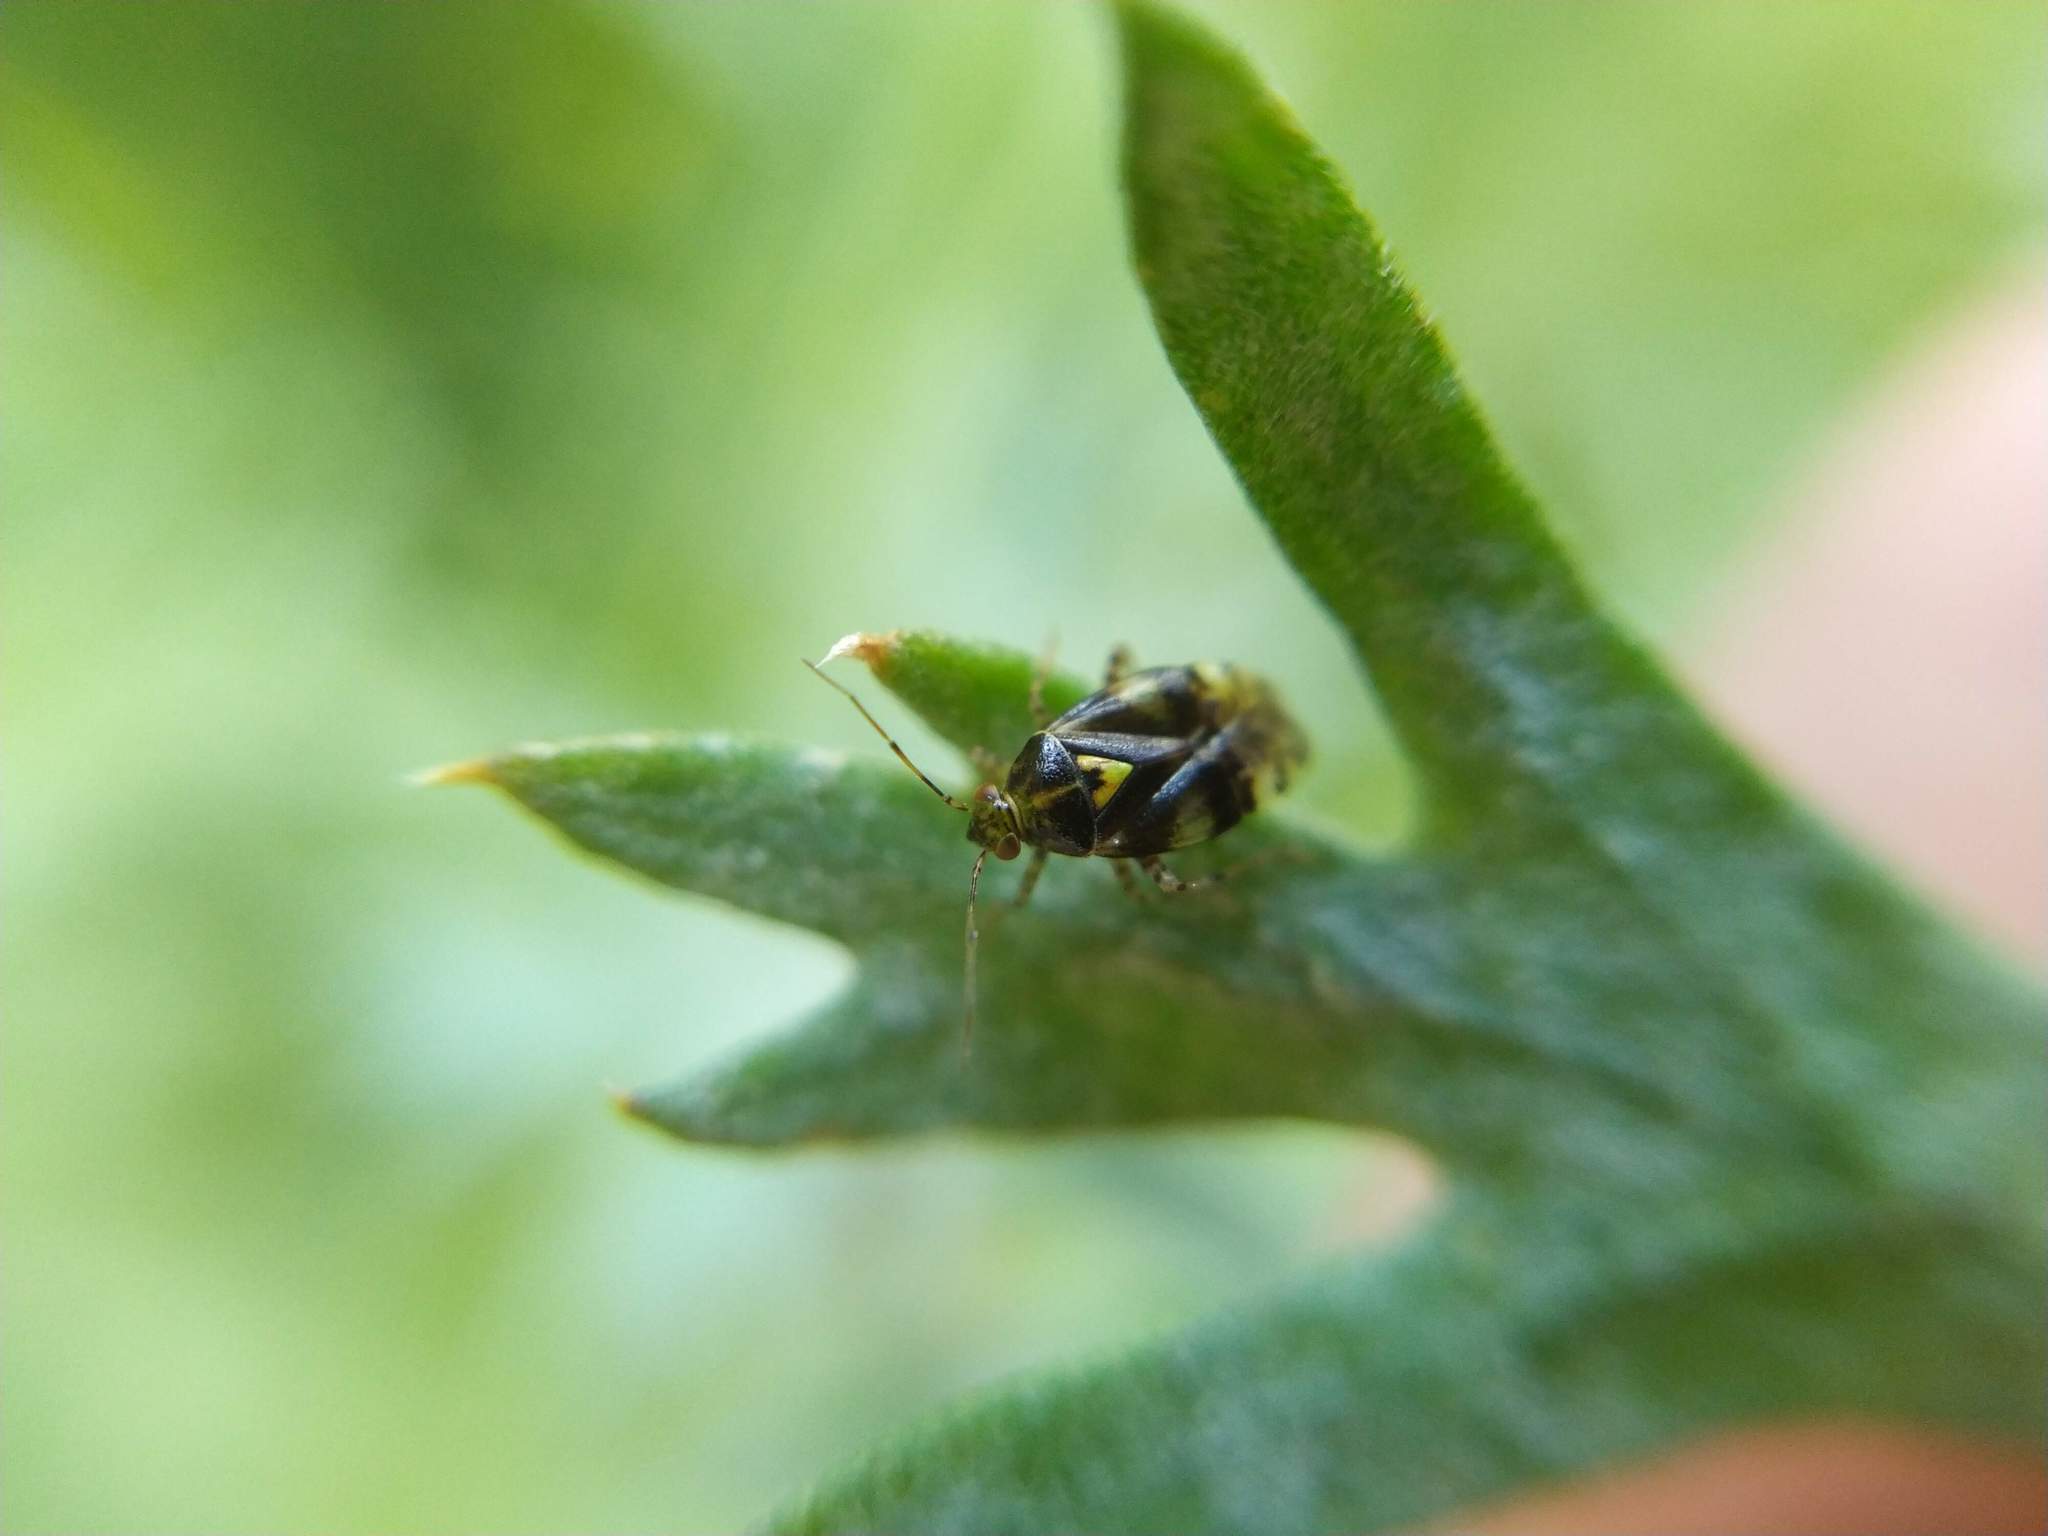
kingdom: Animalia
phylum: Arthropoda
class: Insecta
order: Hemiptera
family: Miridae
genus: Liocoris
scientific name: Liocoris tripustulatus
